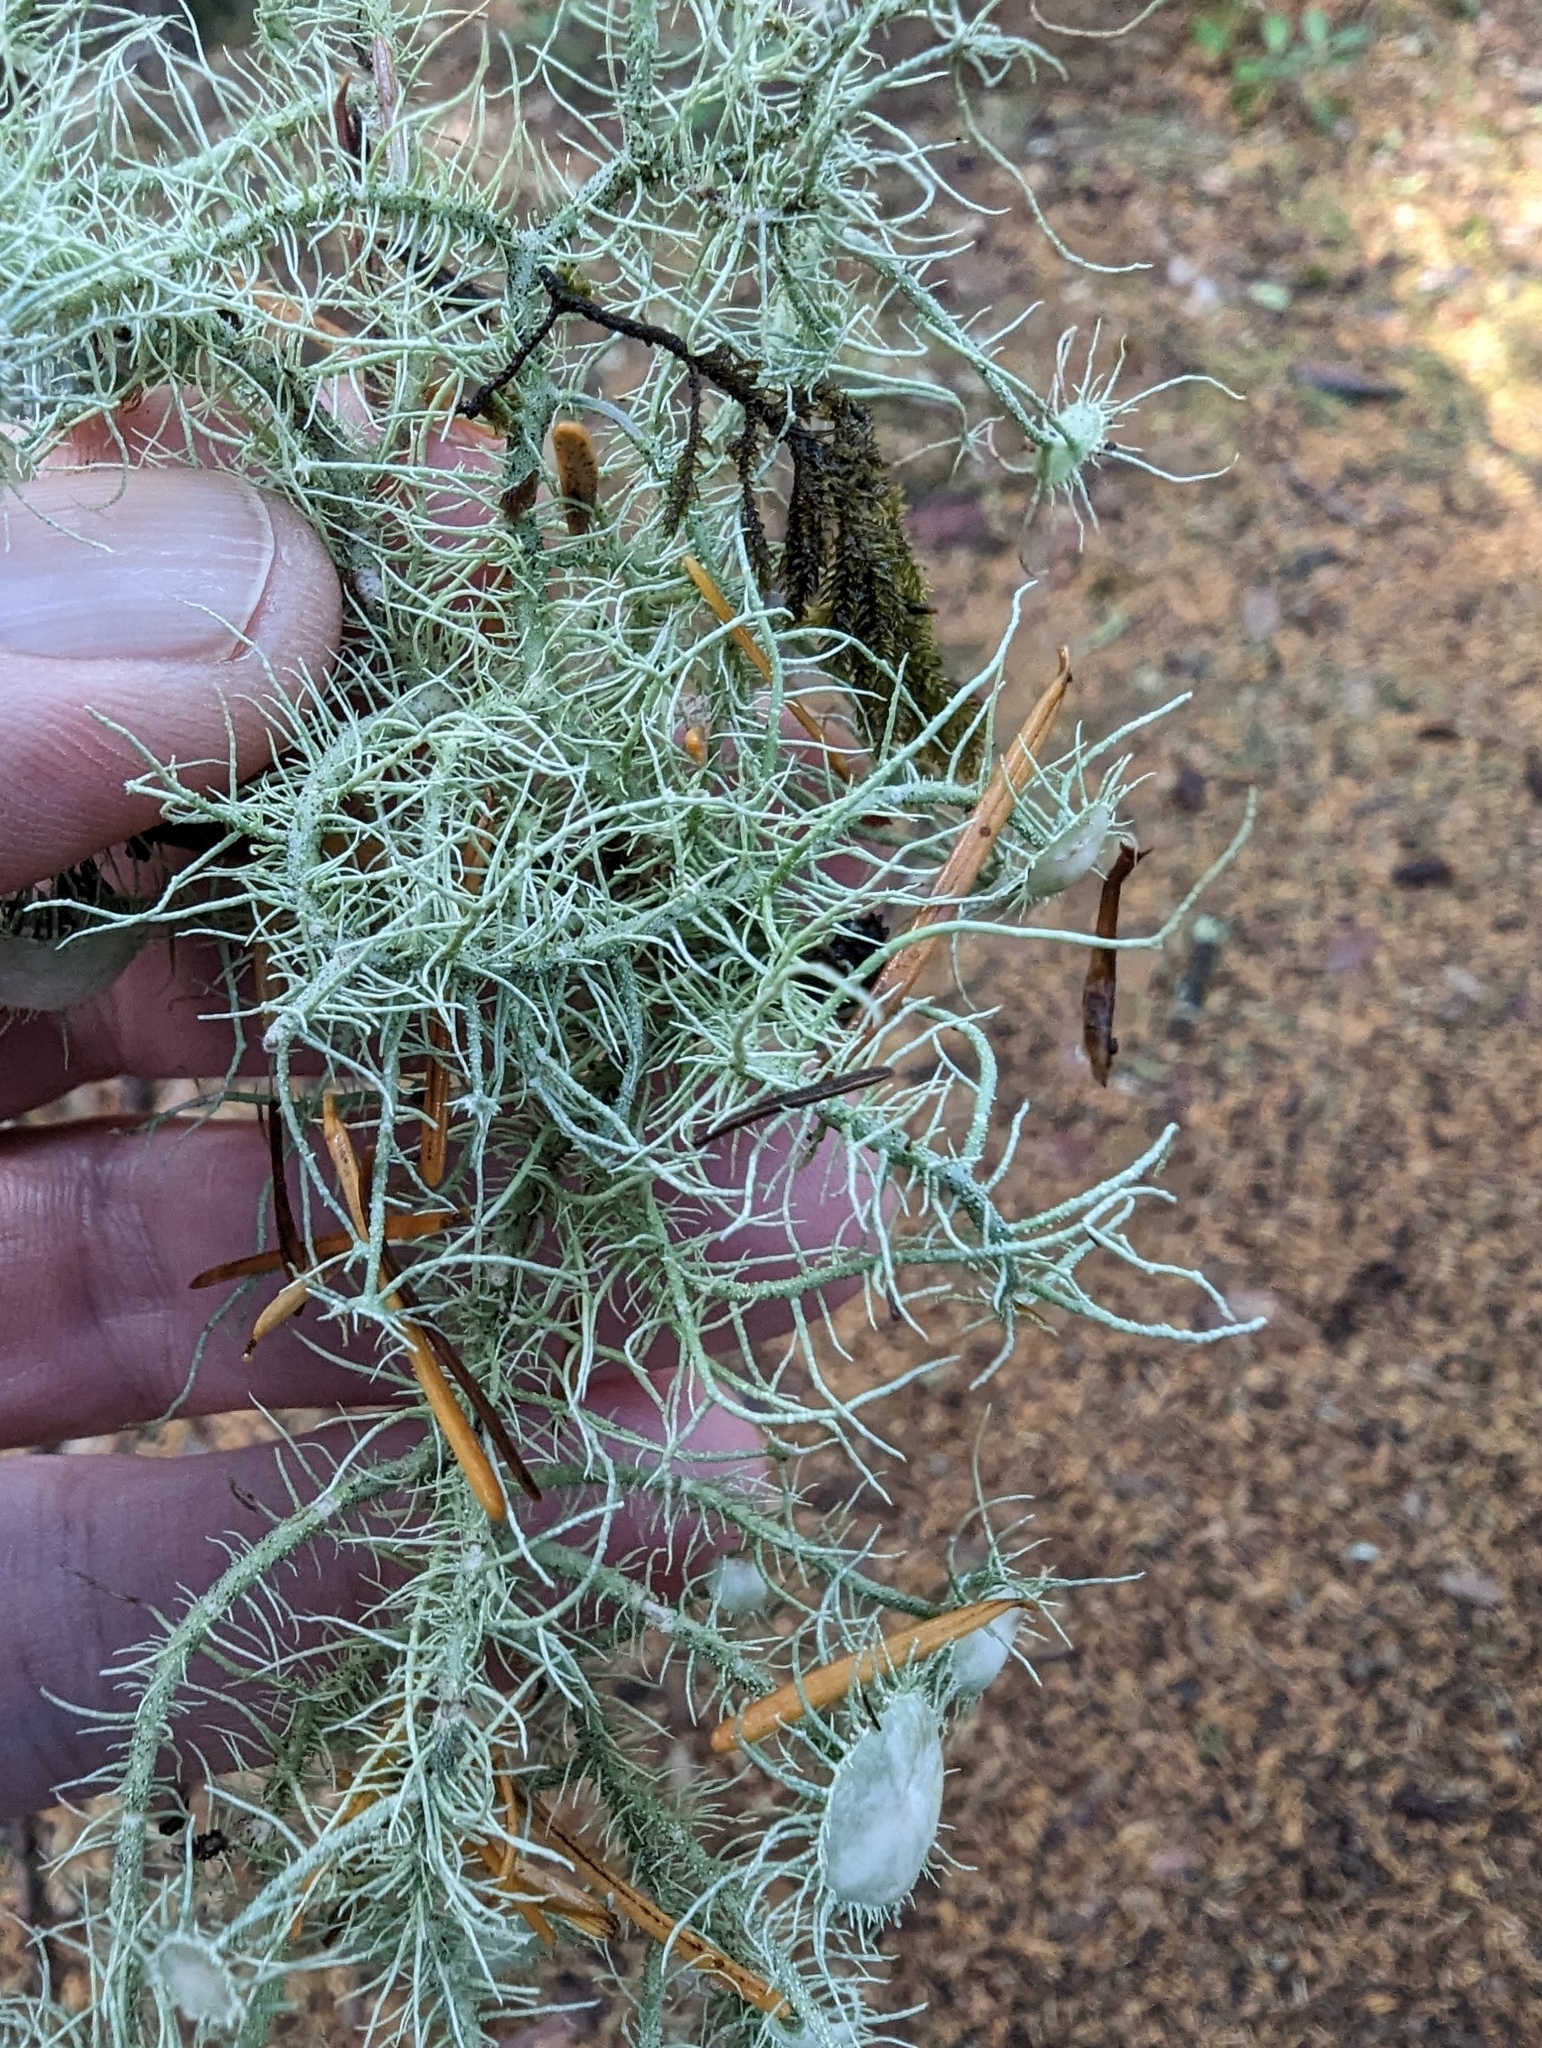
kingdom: Fungi
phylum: Ascomycota
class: Lecanoromycetes
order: Lecanorales
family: Parmeliaceae
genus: Usnea
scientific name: Usnea intermedia
